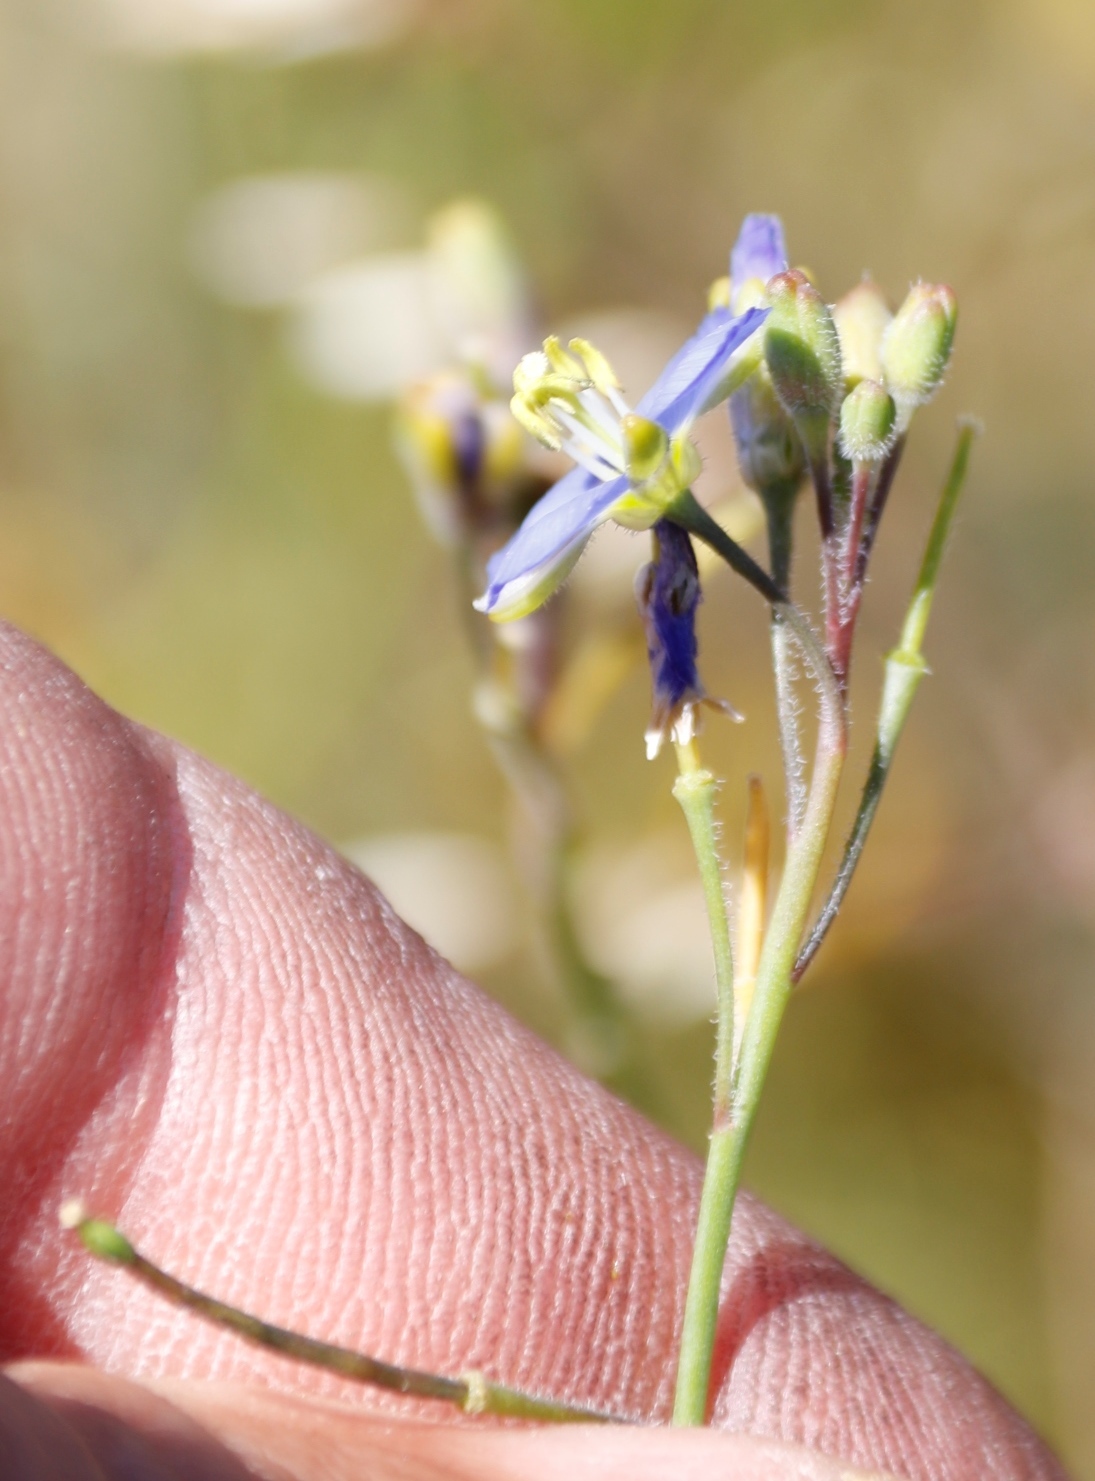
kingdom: Plantae
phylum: Tracheophyta
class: Magnoliopsida
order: Brassicales
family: Brassicaceae
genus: Heliophila
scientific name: Heliophila africana
